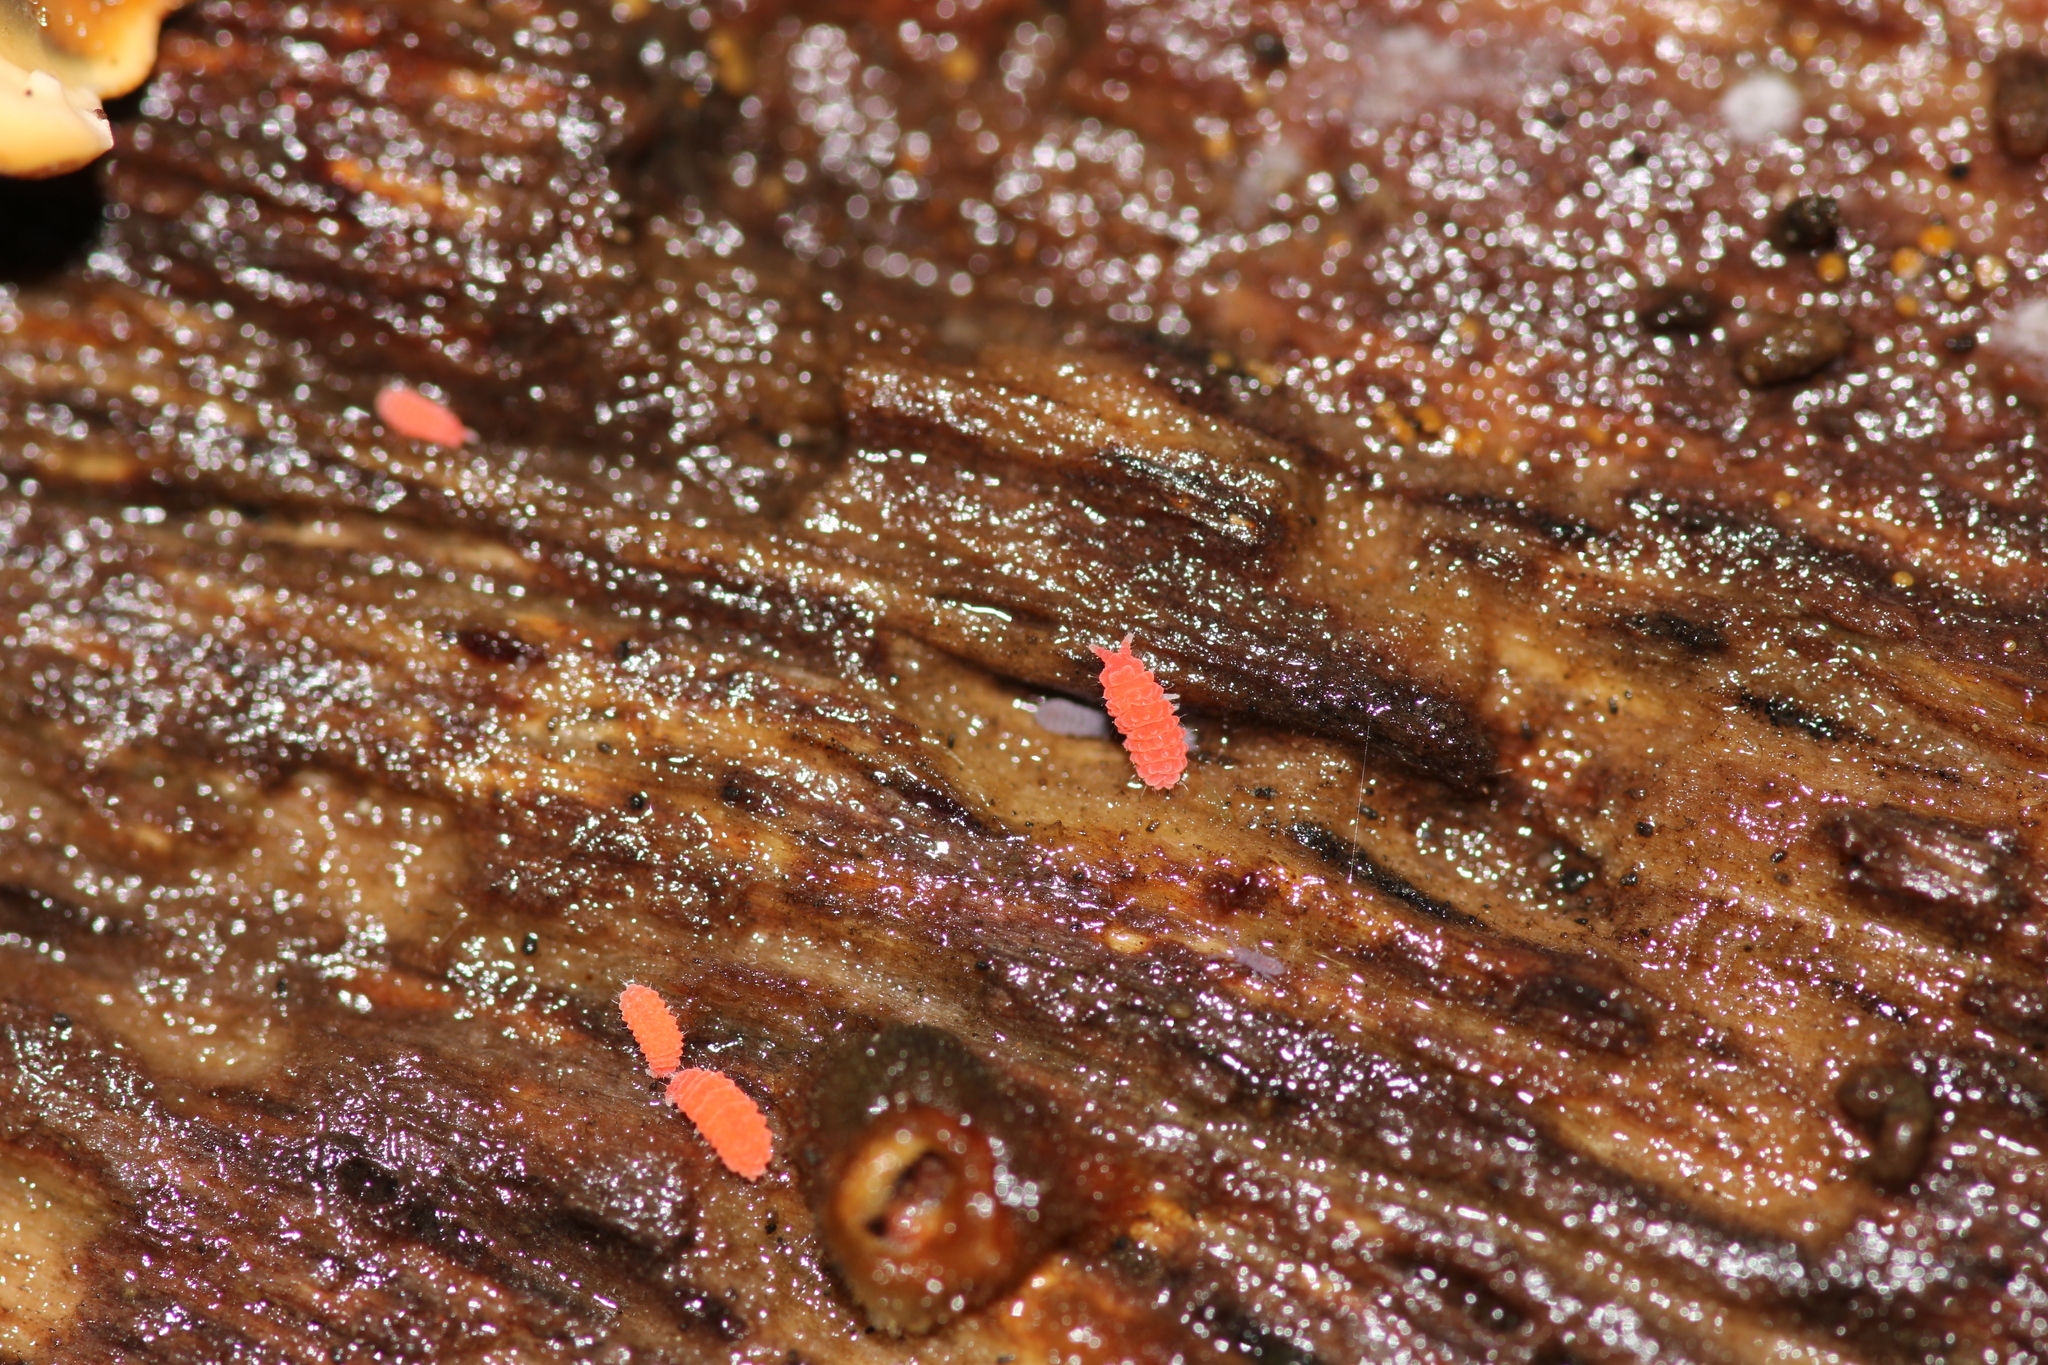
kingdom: Animalia
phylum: Arthropoda
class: Collembola
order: Poduromorpha
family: Neanuridae
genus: Bilobella
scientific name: Bilobella braunerae
